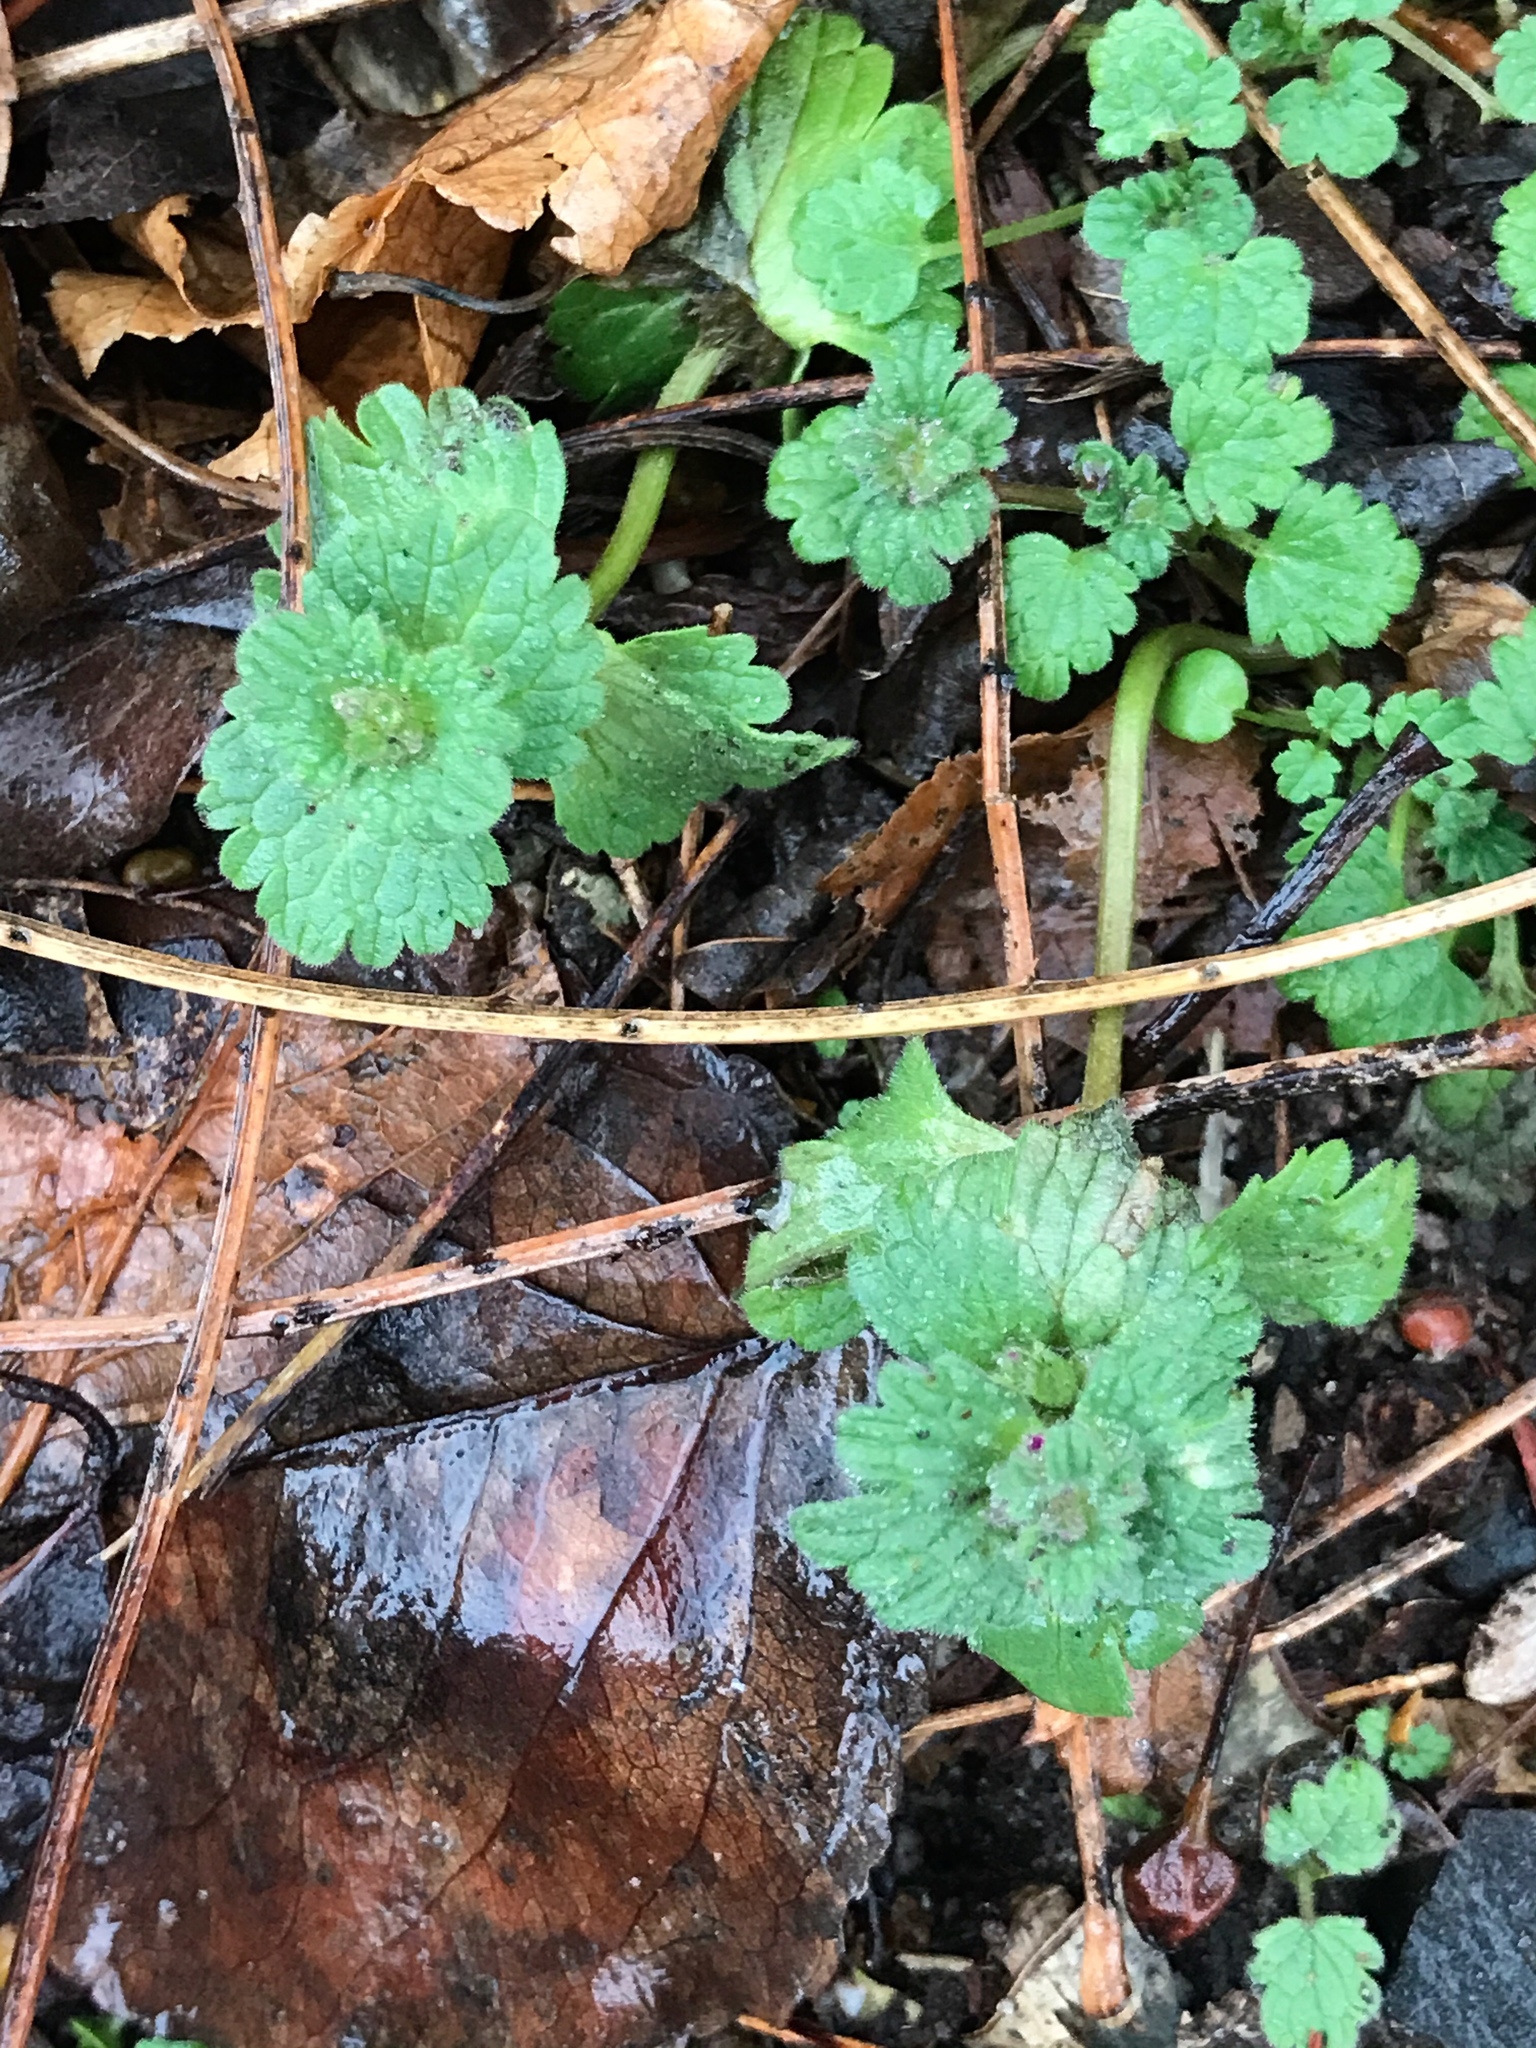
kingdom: Plantae
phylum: Tracheophyta
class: Magnoliopsida
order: Lamiales
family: Lamiaceae
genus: Lamium
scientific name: Lamium amplexicaule
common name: Henbit dead-nettle
